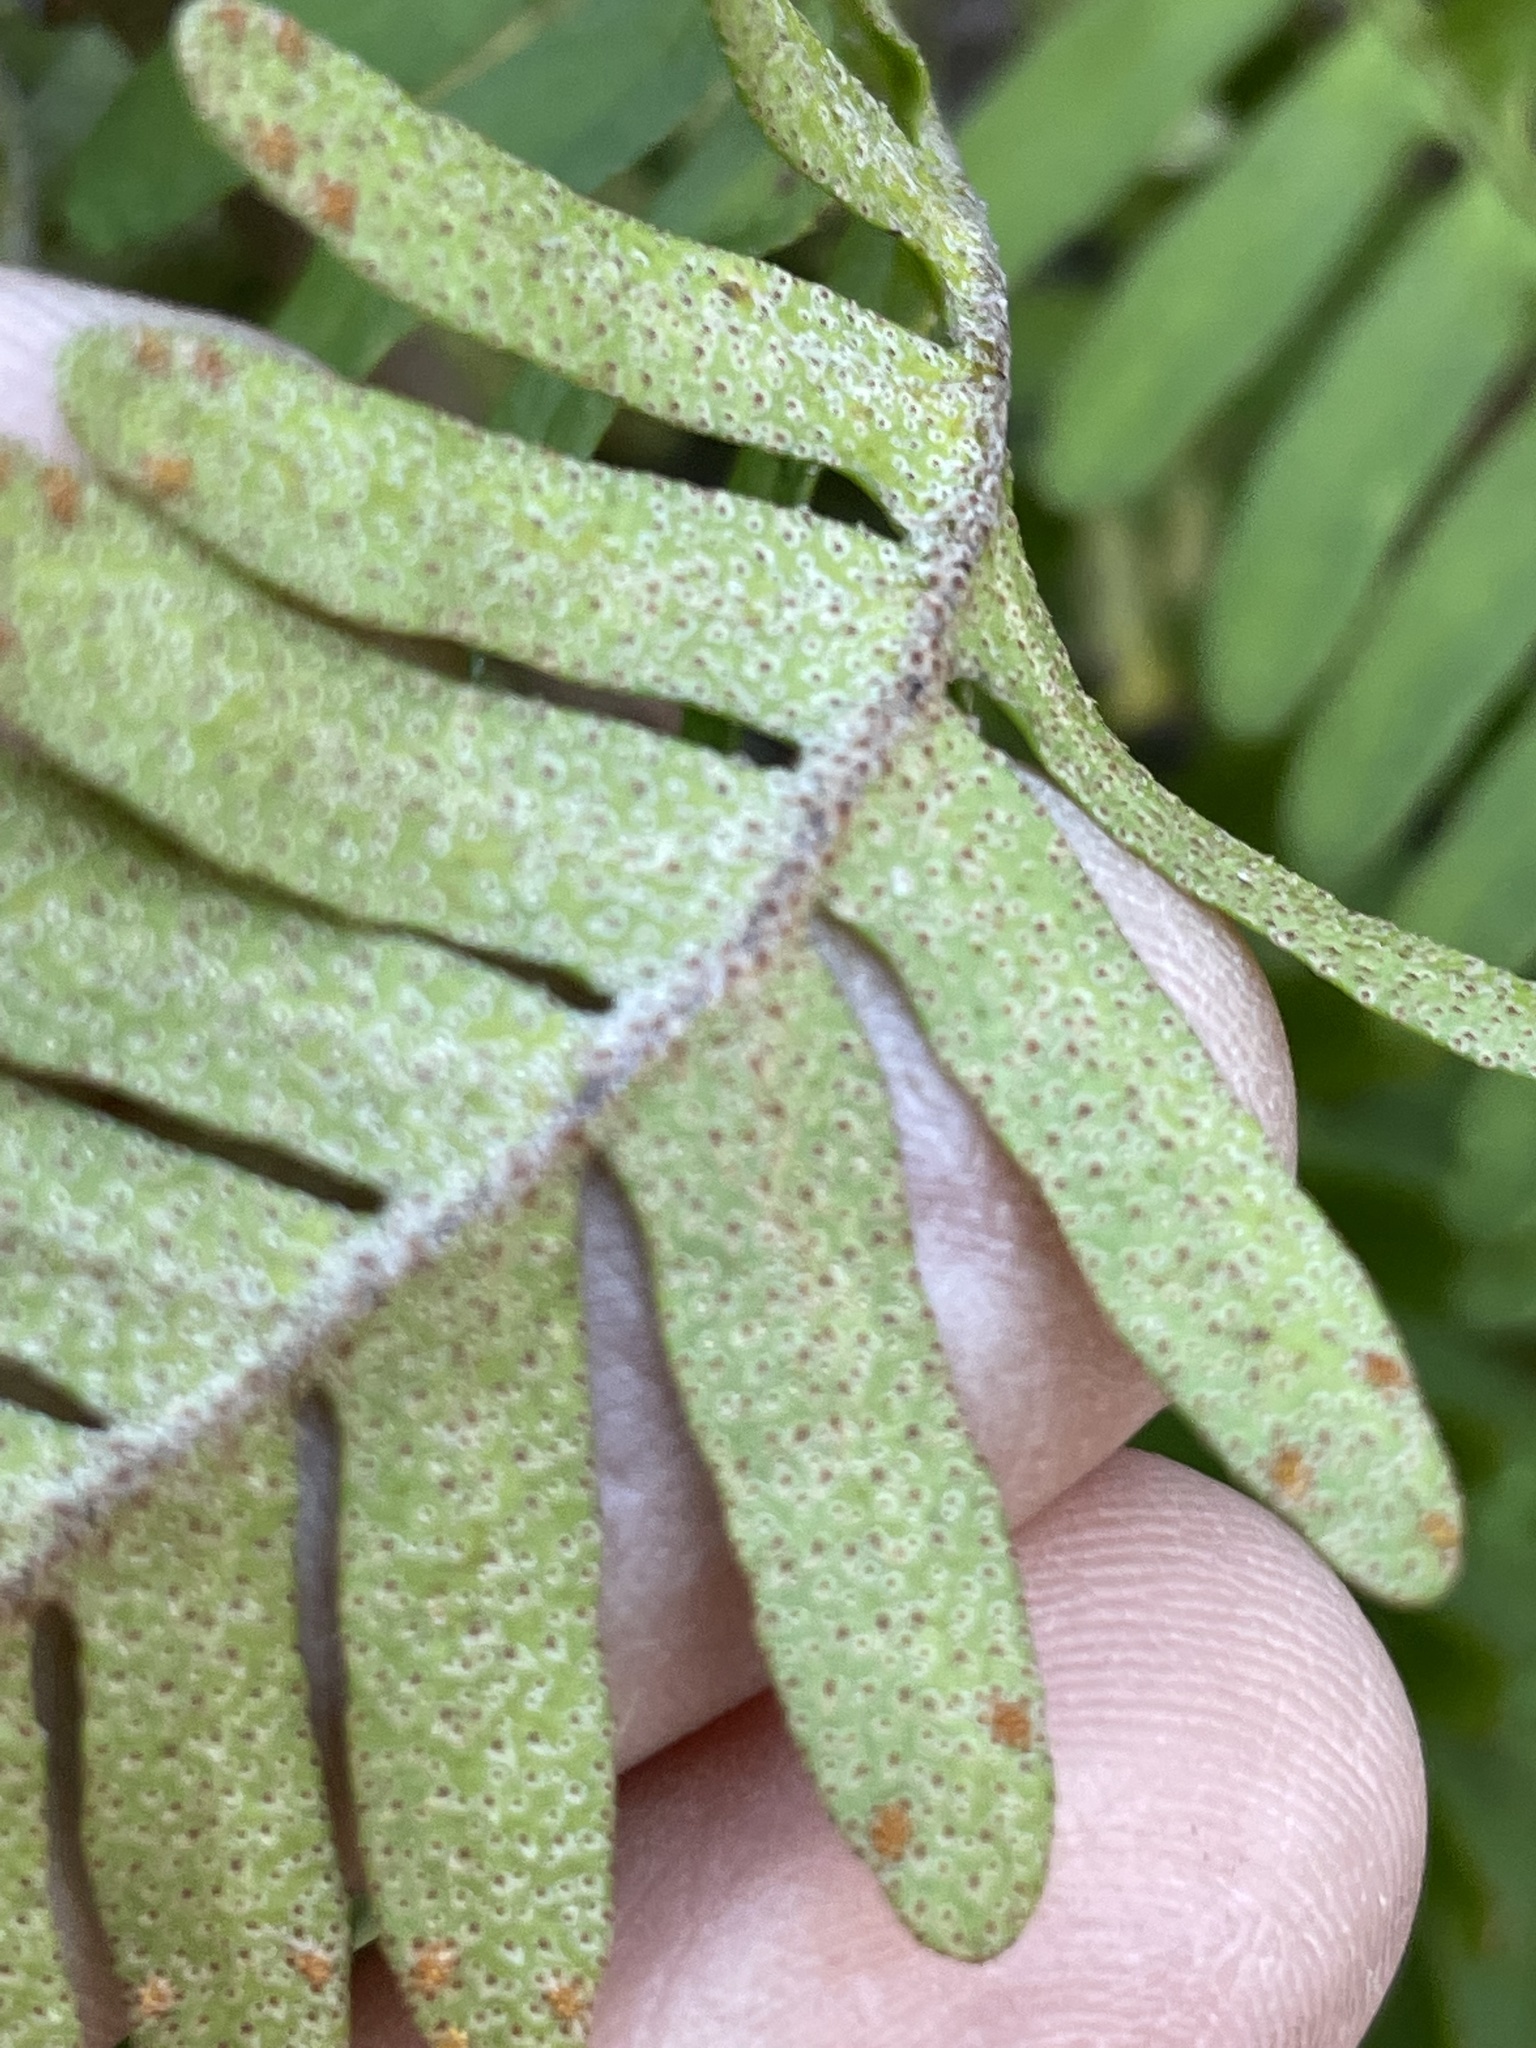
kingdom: Plantae
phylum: Tracheophyta
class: Polypodiopsida
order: Polypodiales
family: Polypodiaceae
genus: Pleopeltis
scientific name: Pleopeltis michauxiana
